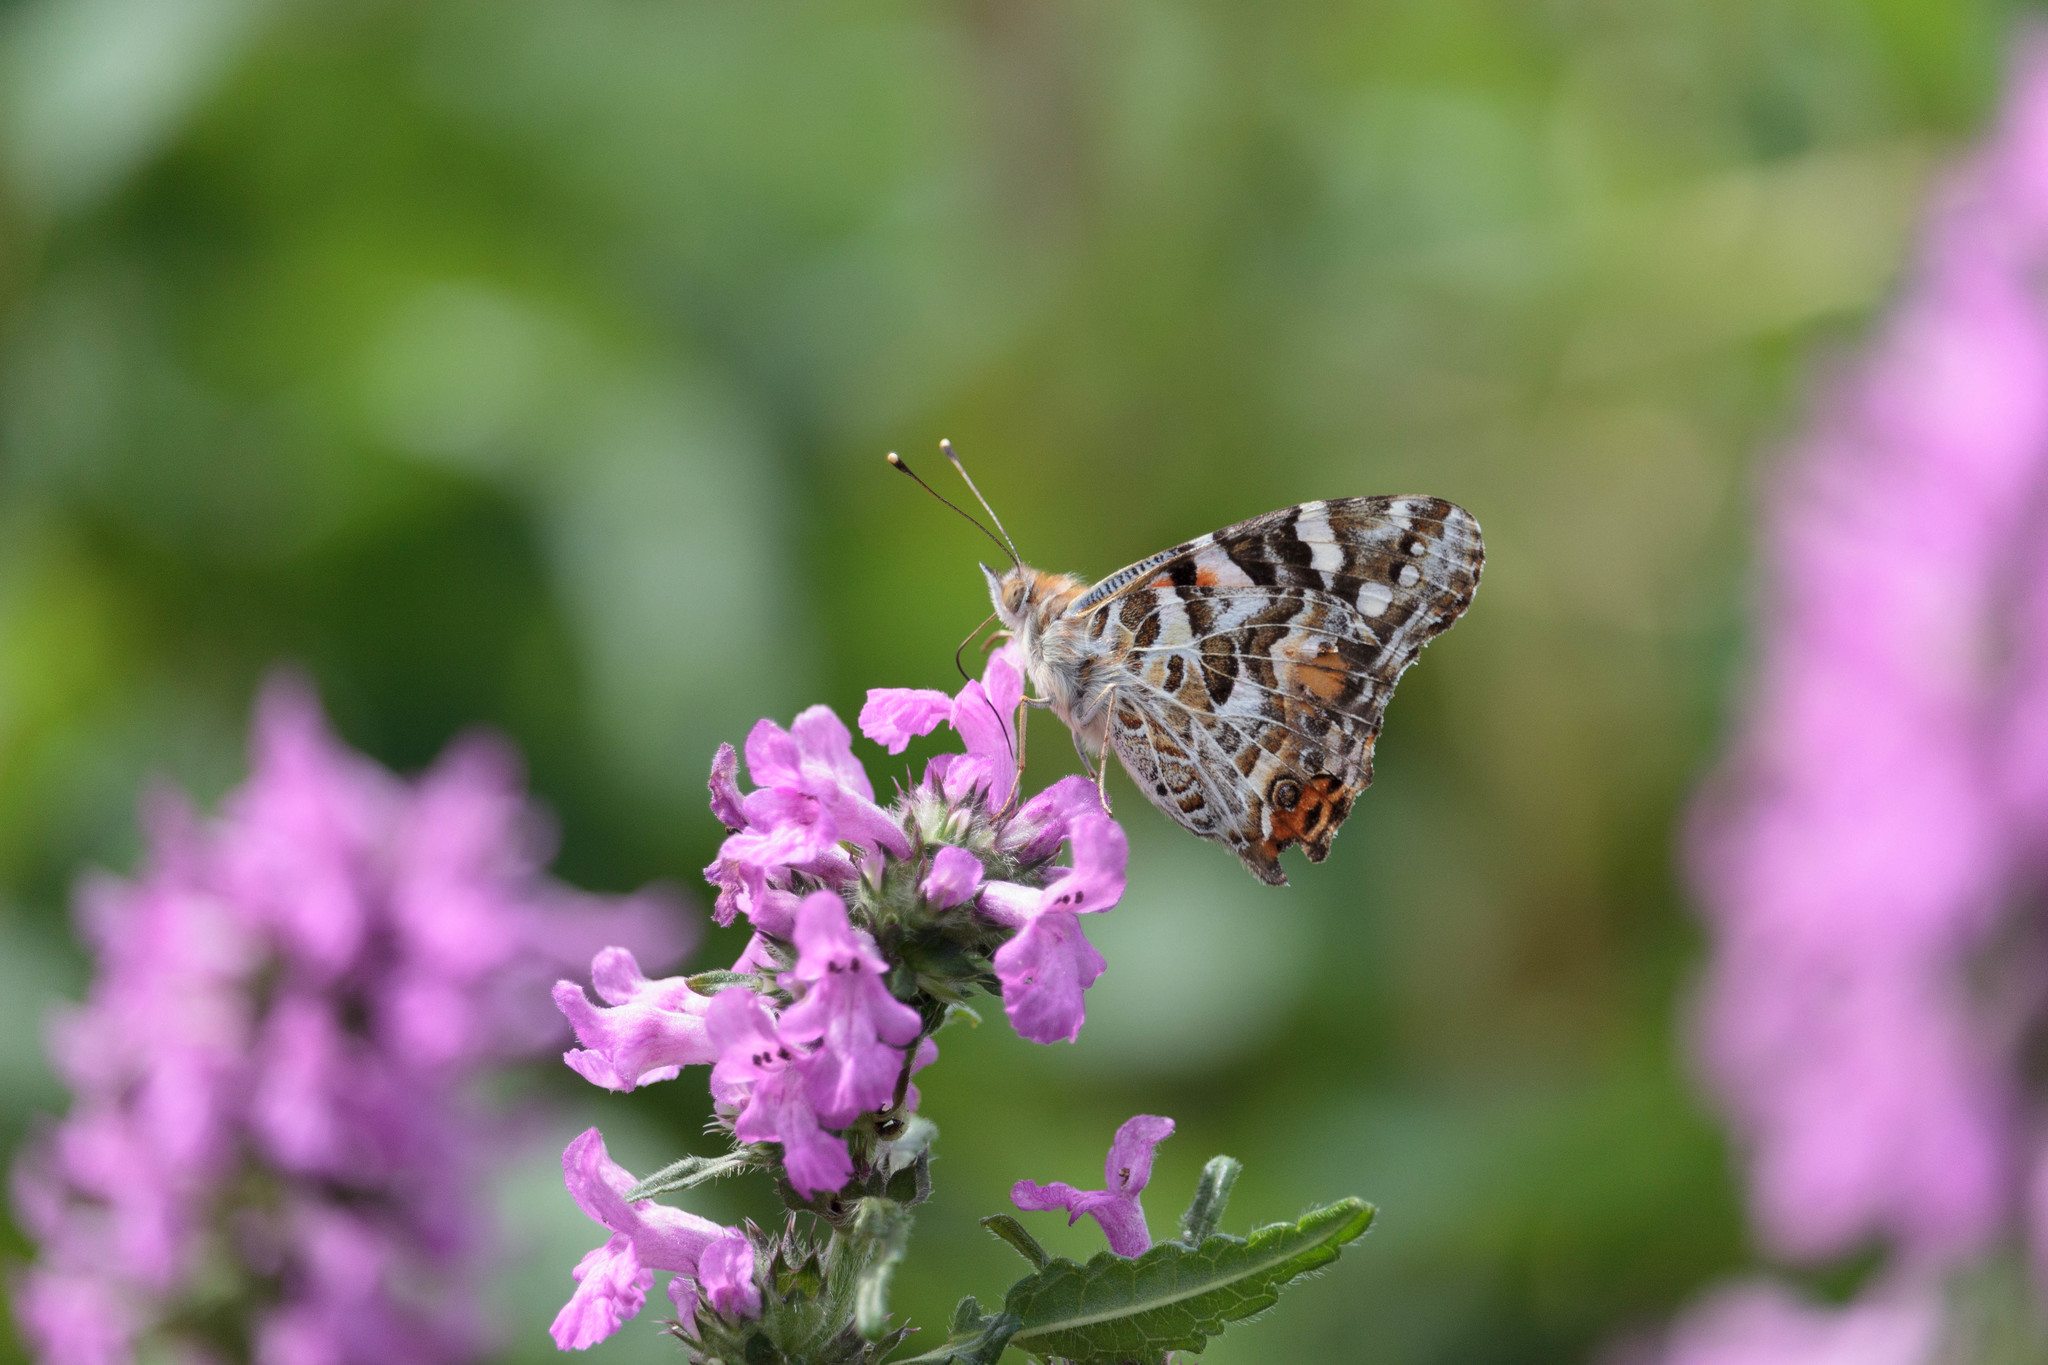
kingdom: Animalia
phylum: Arthropoda
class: Insecta
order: Lepidoptera
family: Nymphalidae
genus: Vanessa
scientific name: Vanessa kershawi
